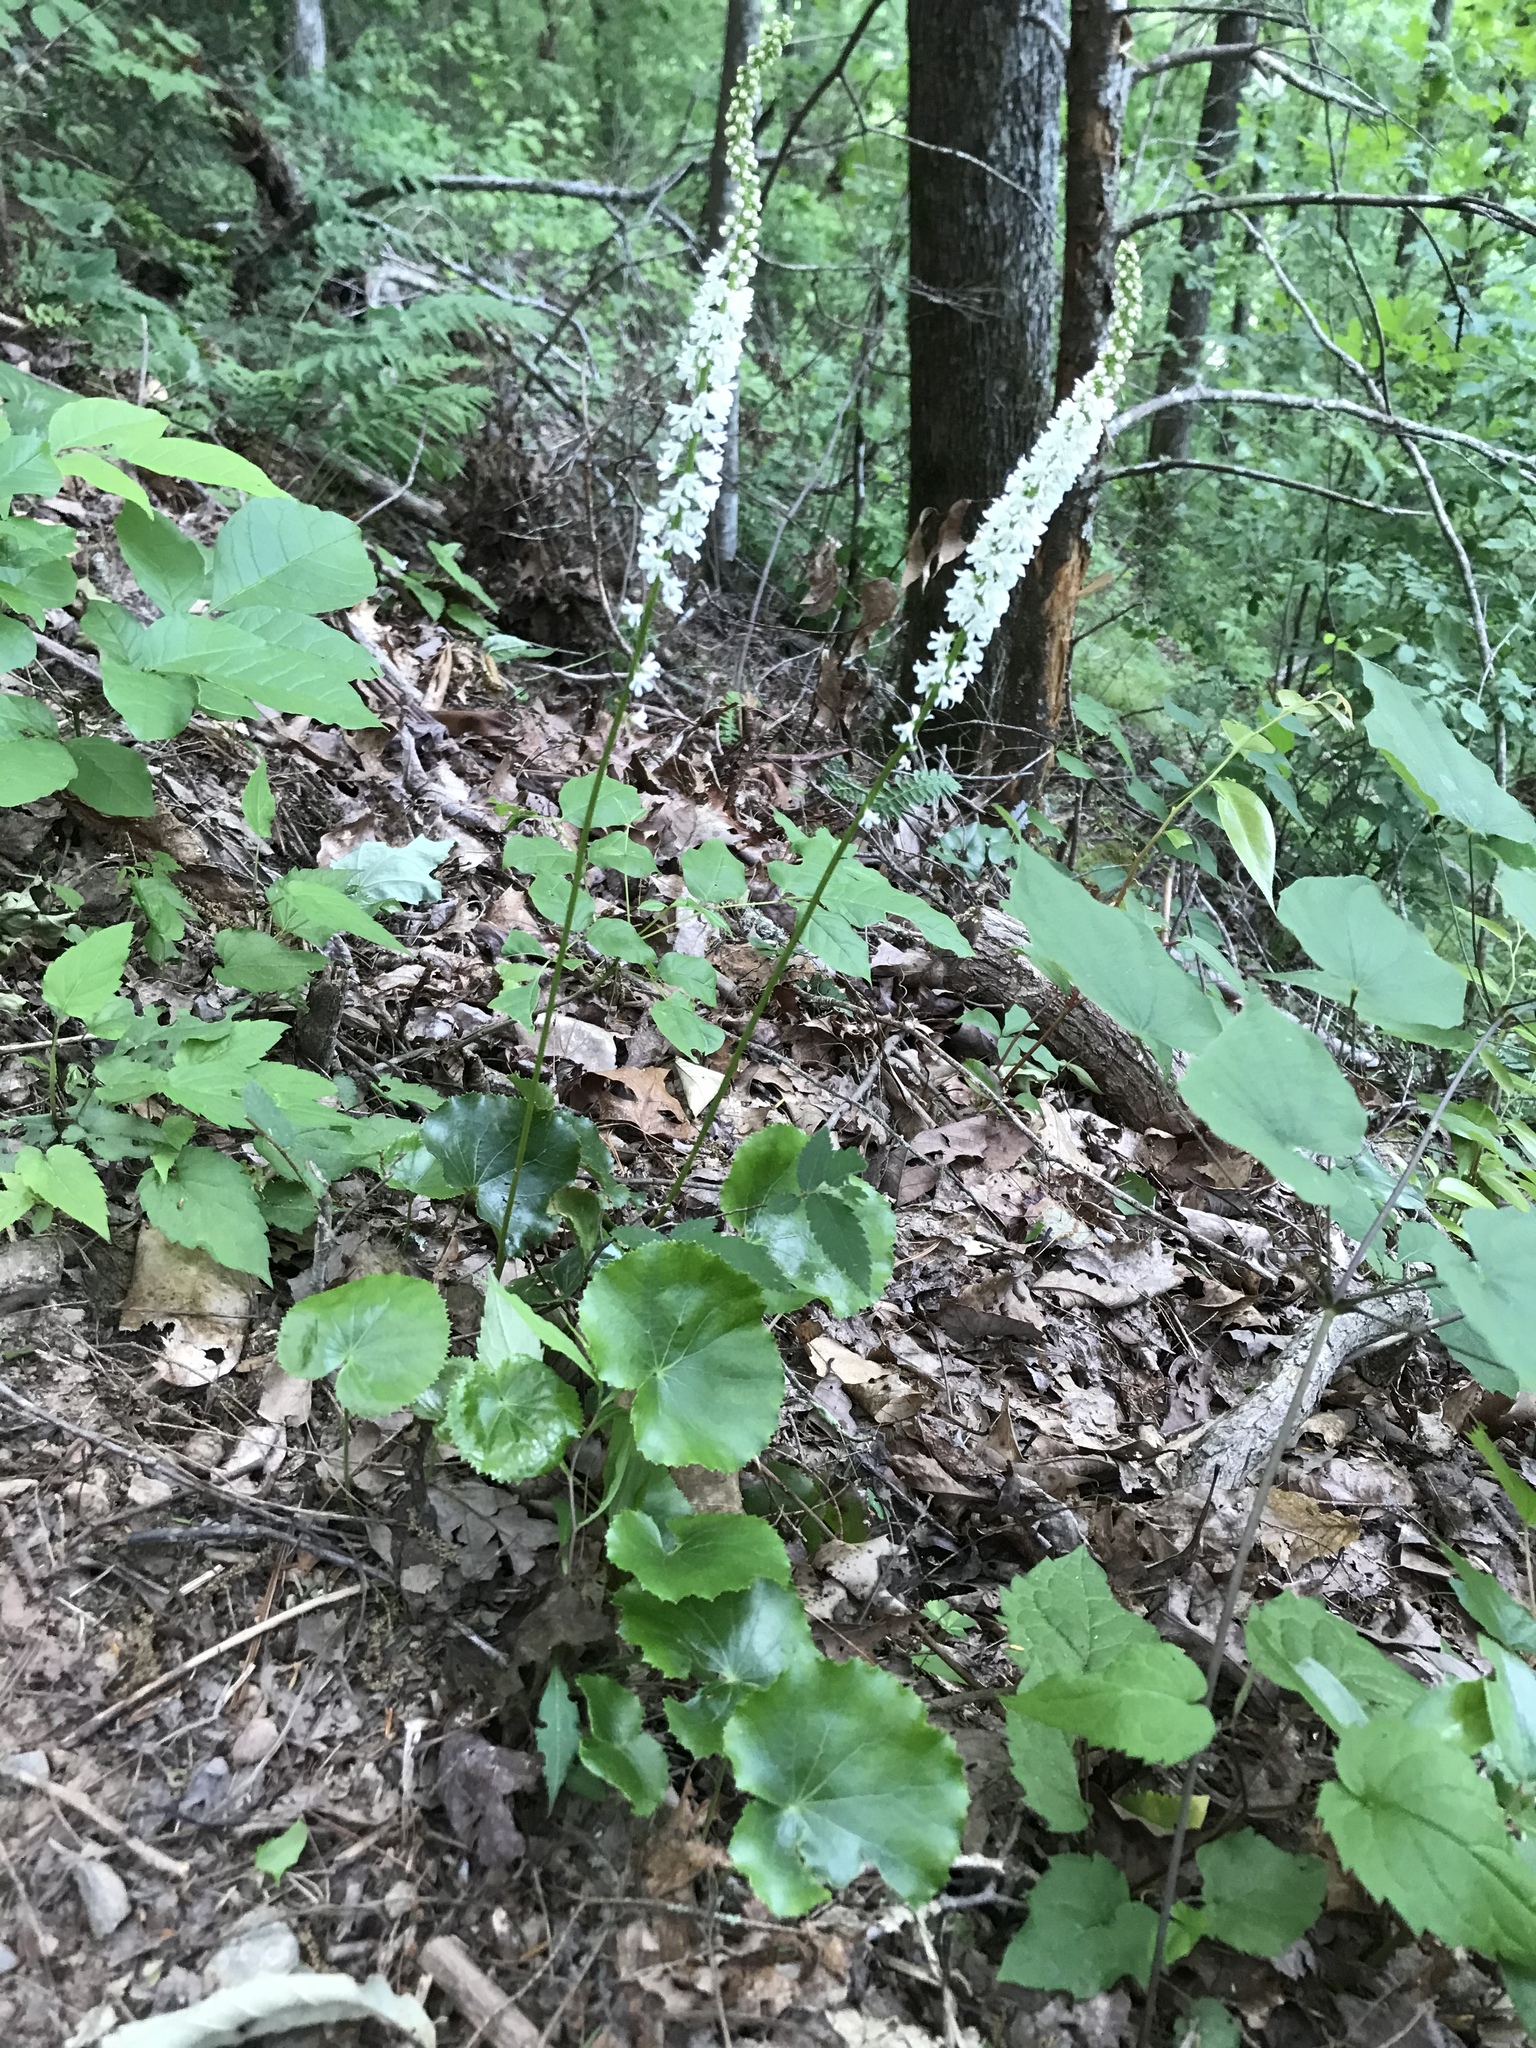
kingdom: Plantae
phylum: Tracheophyta
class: Magnoliopsida
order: Ericales
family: Diapensiaceae
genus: Galax
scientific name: Galax urceolata
